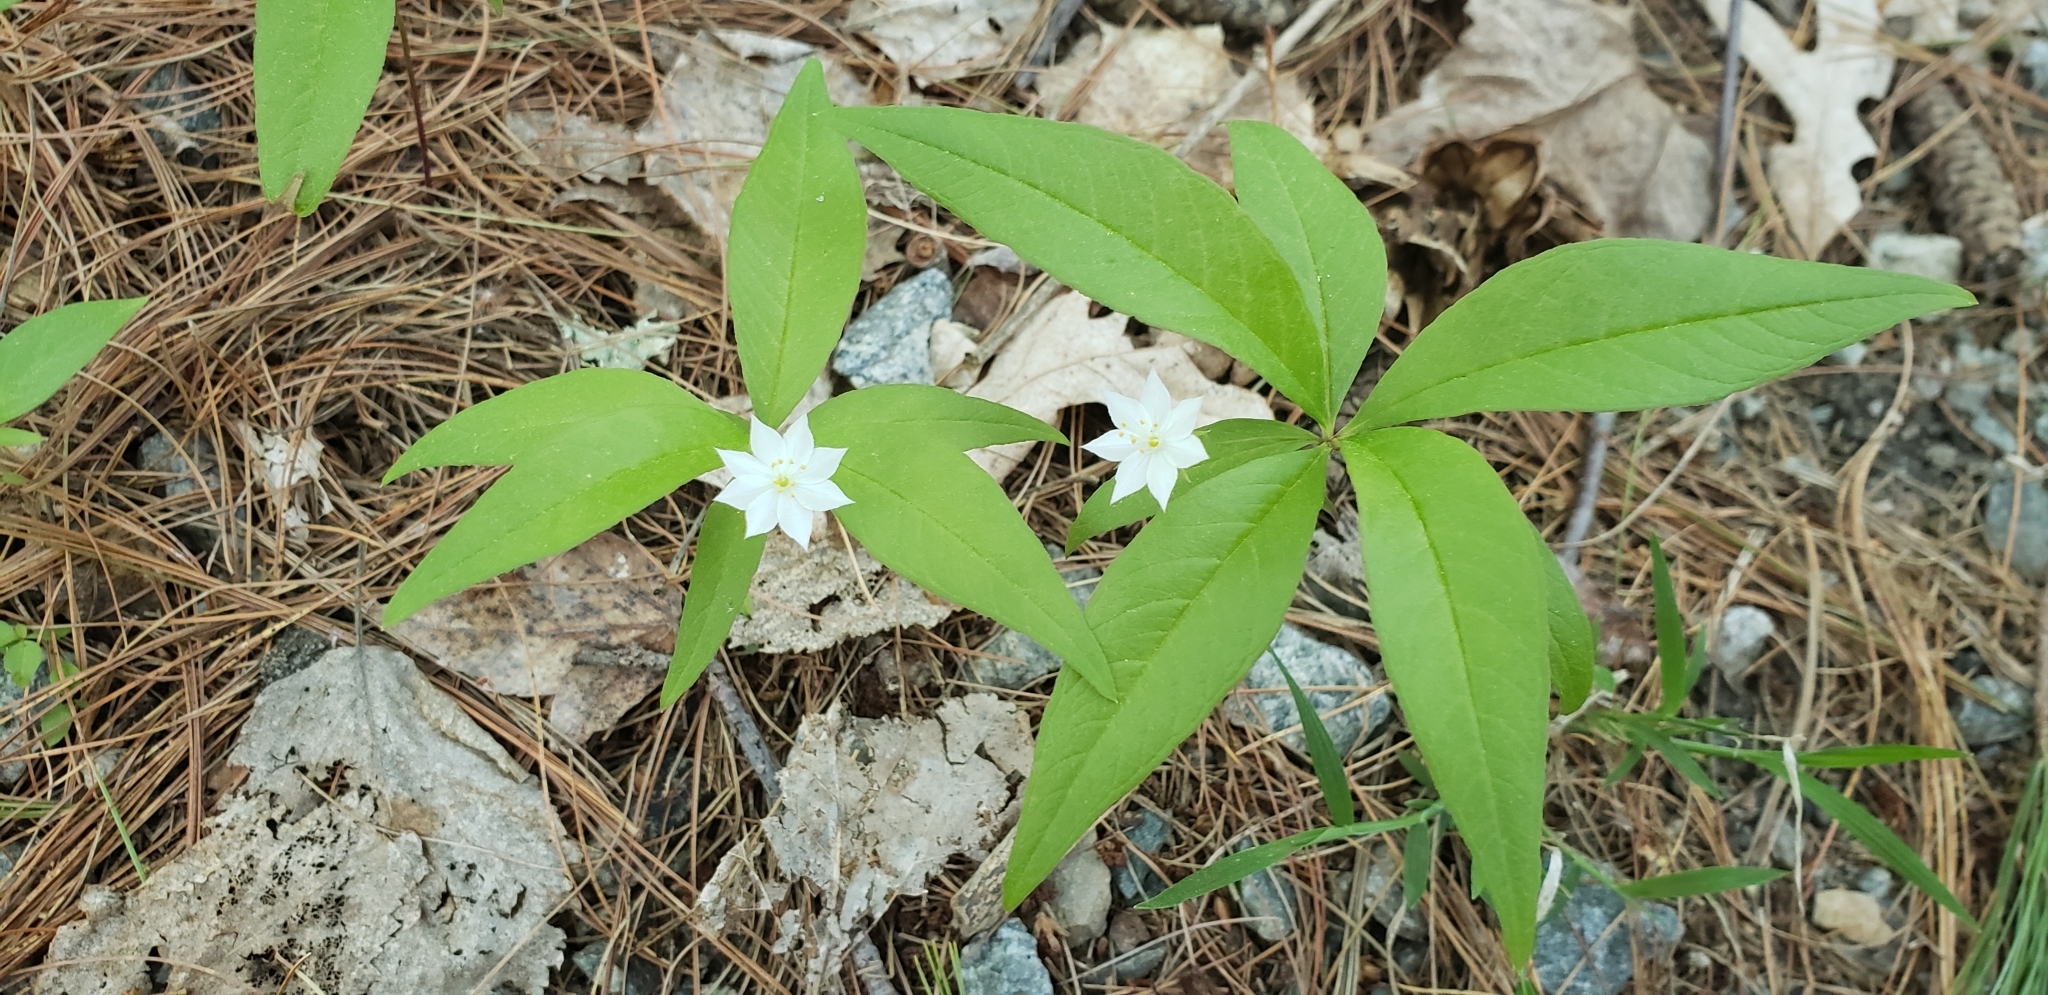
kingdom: Plantae
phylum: Tracheophyta
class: Magnoliopsida
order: Ericales
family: Primulaceae
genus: Lysimachia
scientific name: Lysimachia borealis
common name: American starflower
